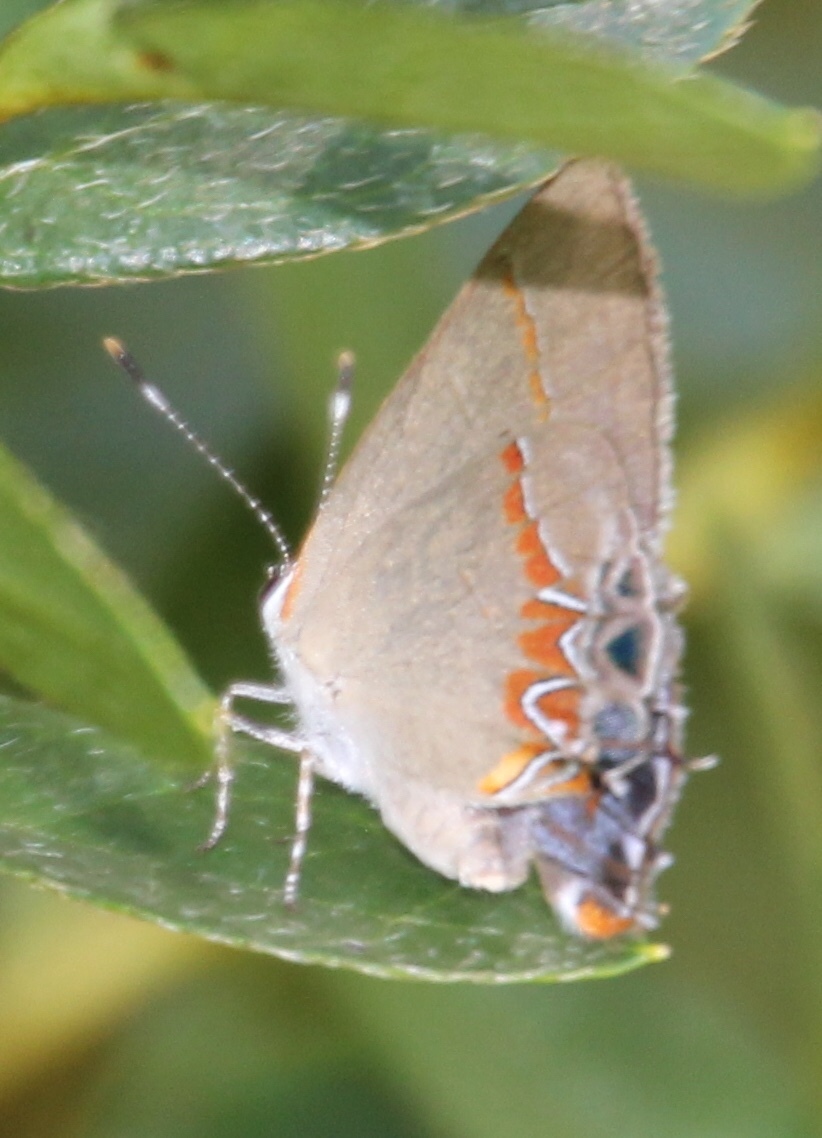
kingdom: Animalia
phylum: Arthropoda
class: Insecta
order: Lepidoptera
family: Lycaenidae
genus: Calycopis
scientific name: Calycopis cecrops
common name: Red-banded hairstreak
